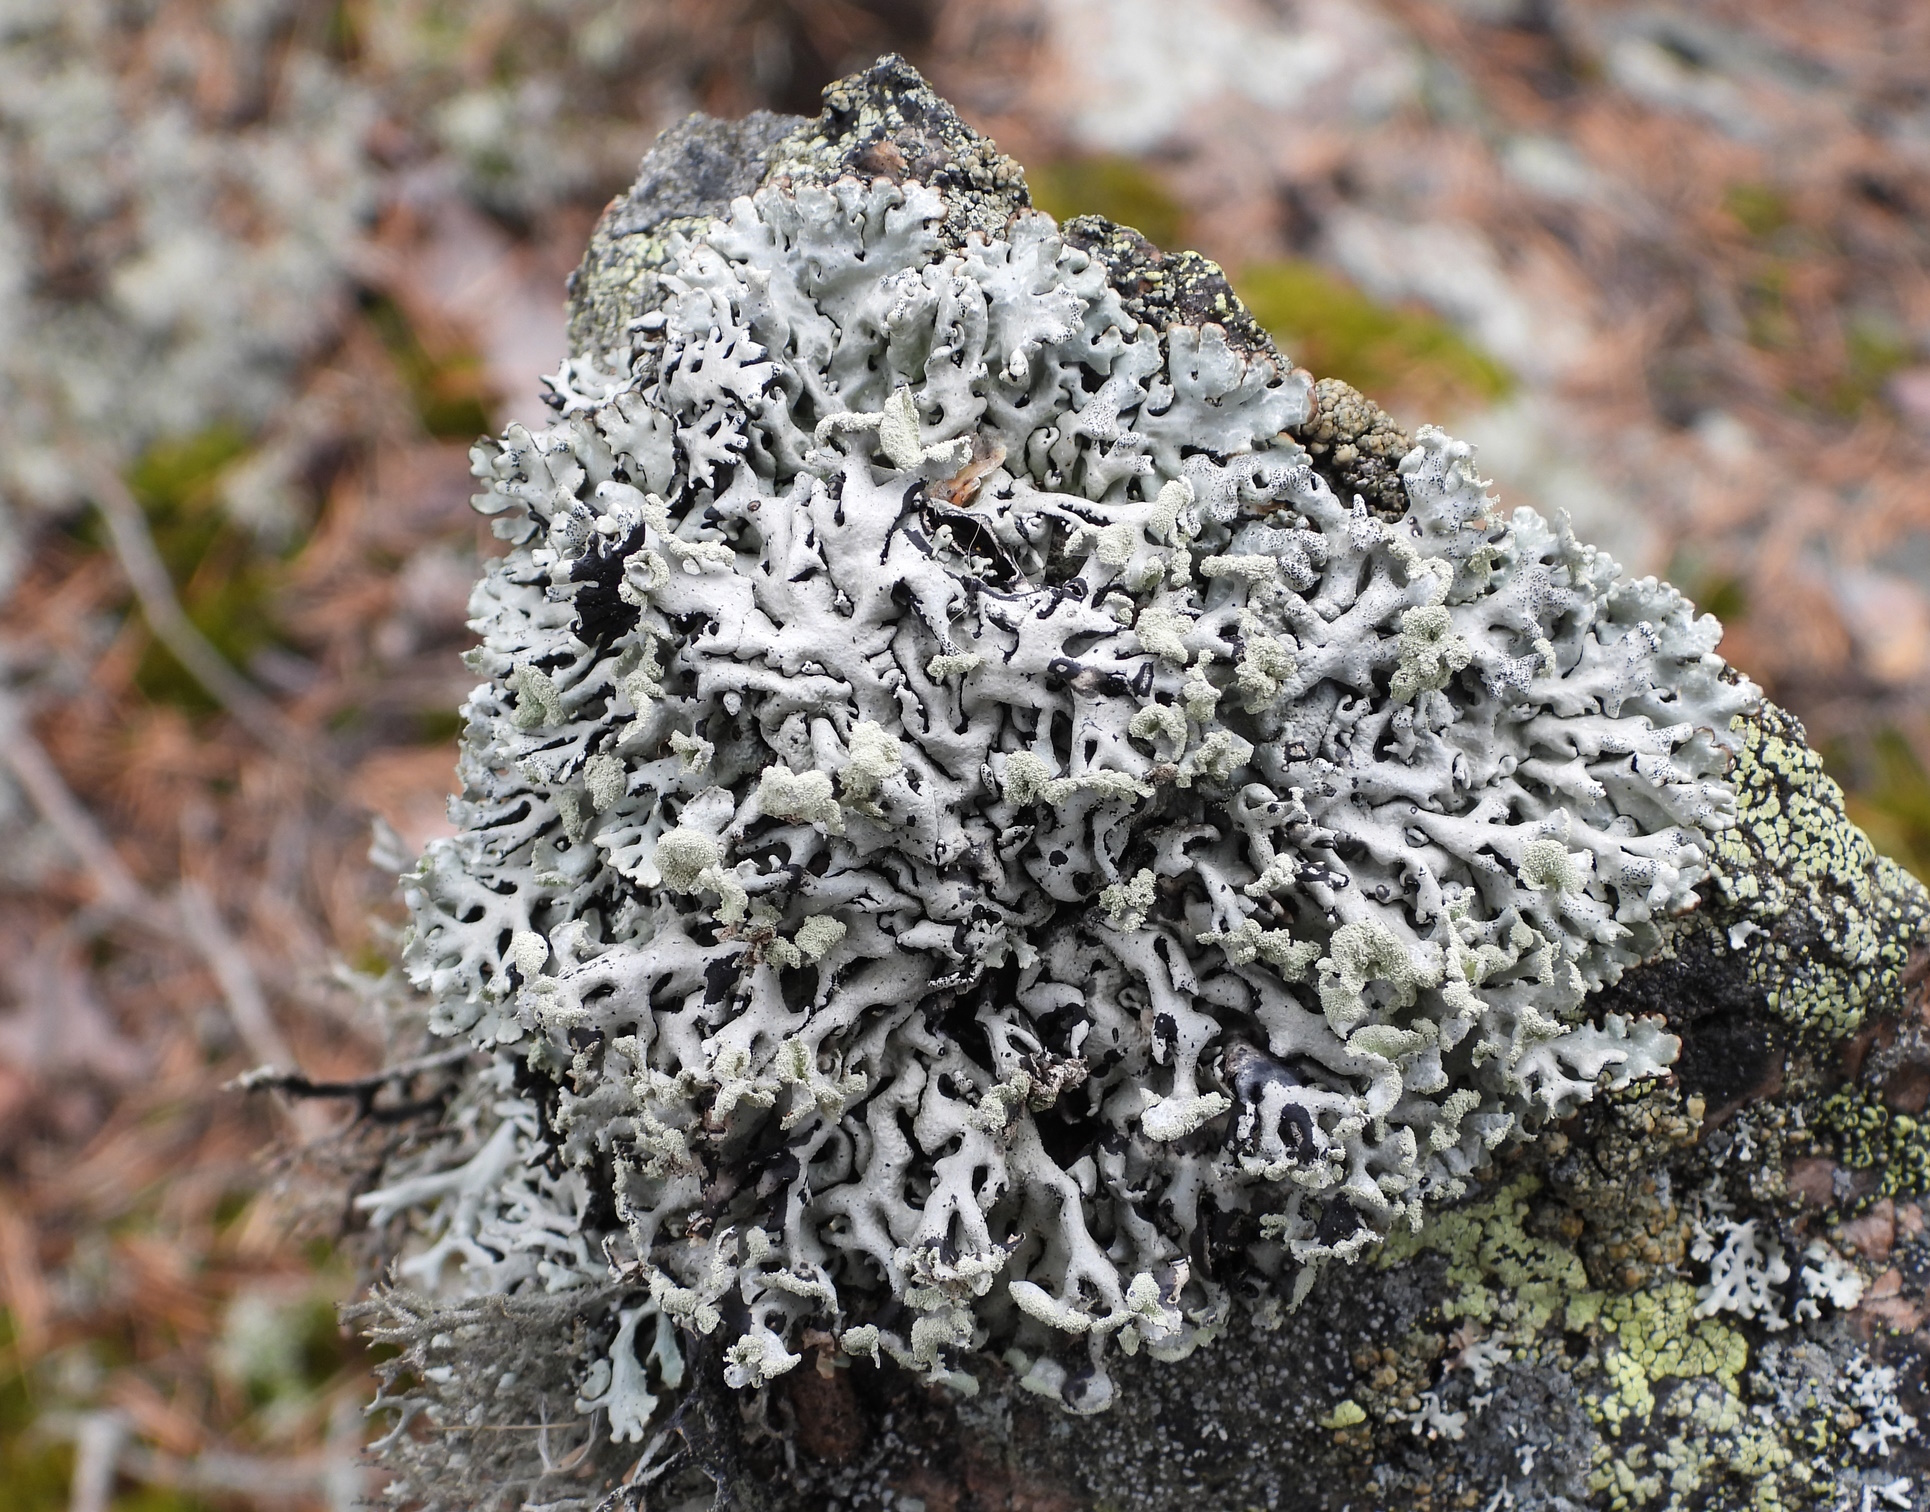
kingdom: Fungi
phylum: Ascomycota
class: Lecanoromycetes
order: Lecanorales
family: Parmeliaceae
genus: Hypogymnia
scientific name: Hypogymnia physodes
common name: Dark crottle
